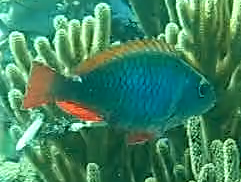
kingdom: Animalia
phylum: Chordata
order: Perciformes
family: Scaridae
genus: Sparisoma
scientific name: Sparisoma aurofrenatum
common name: Redband parrotfish
